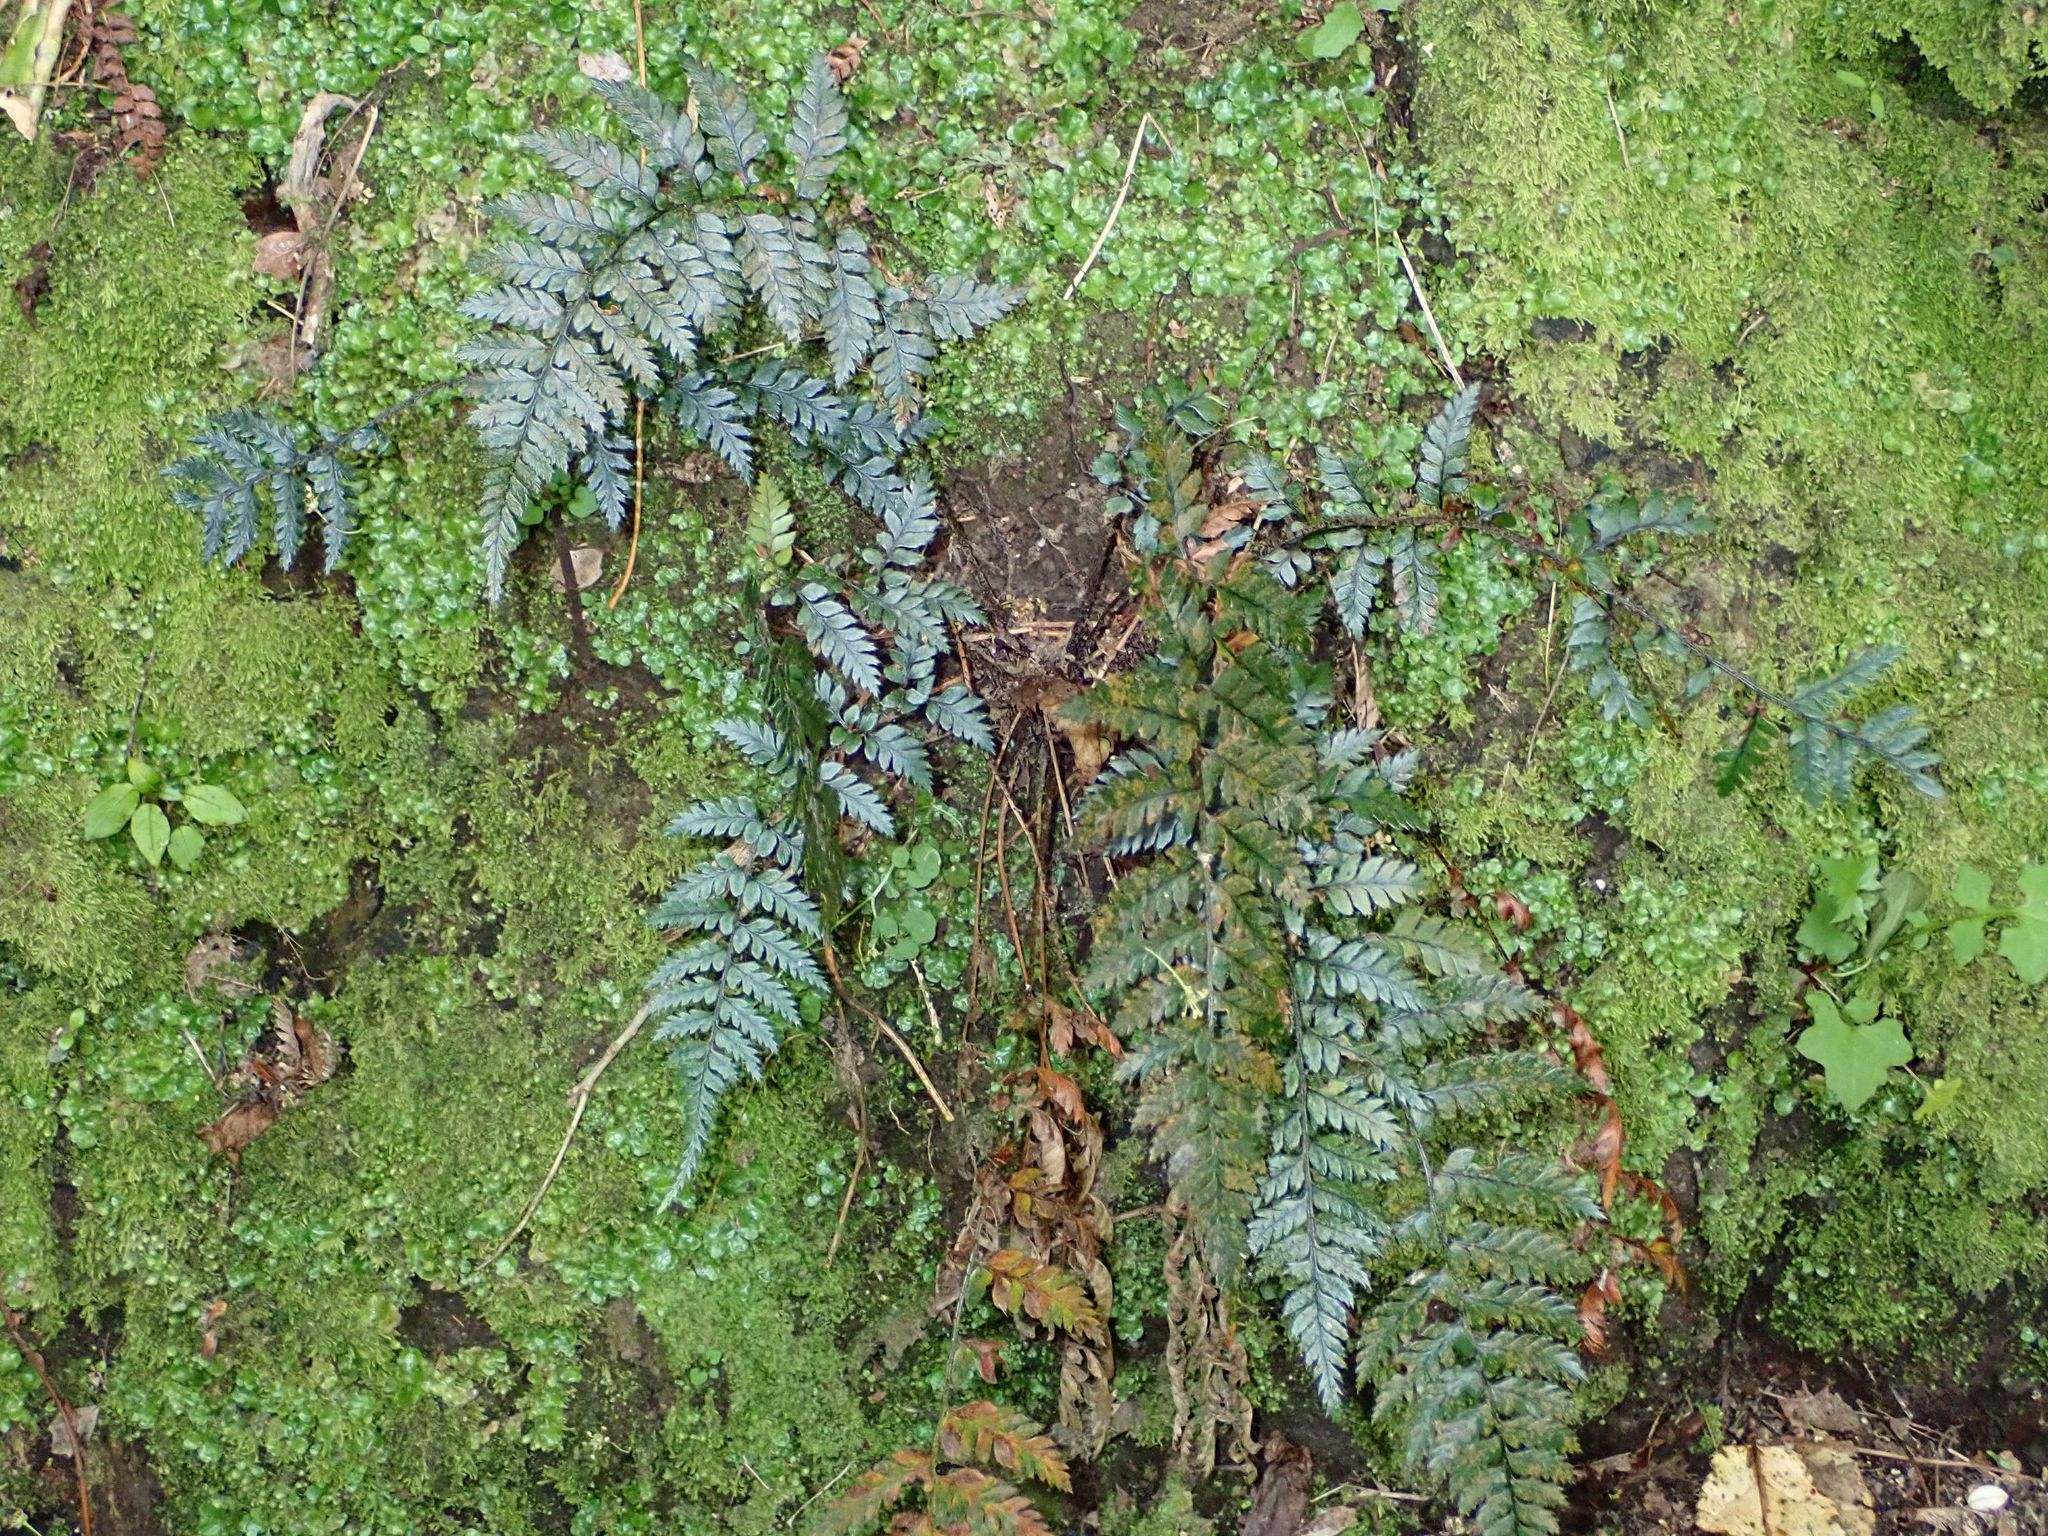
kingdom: Plantae
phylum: Tracheophyta
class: Polypodiopsida
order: Polypodiales
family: Dryopteridaceae
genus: Polystichum
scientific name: Polystichum neozelandicum
